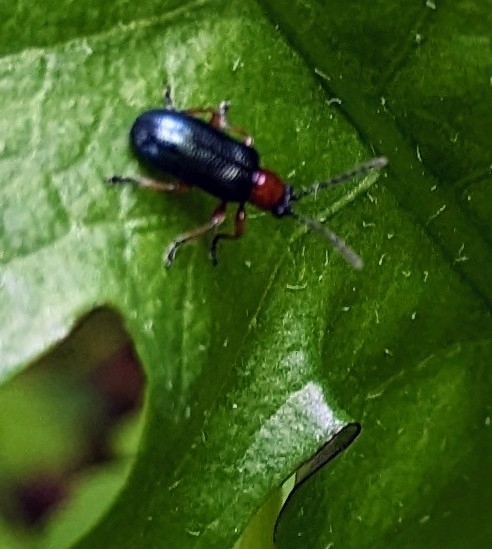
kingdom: Animalia
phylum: Arthropoda
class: Insecta
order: Coleoptera
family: Chrysomelidae
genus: Oulema
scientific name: Oulema
